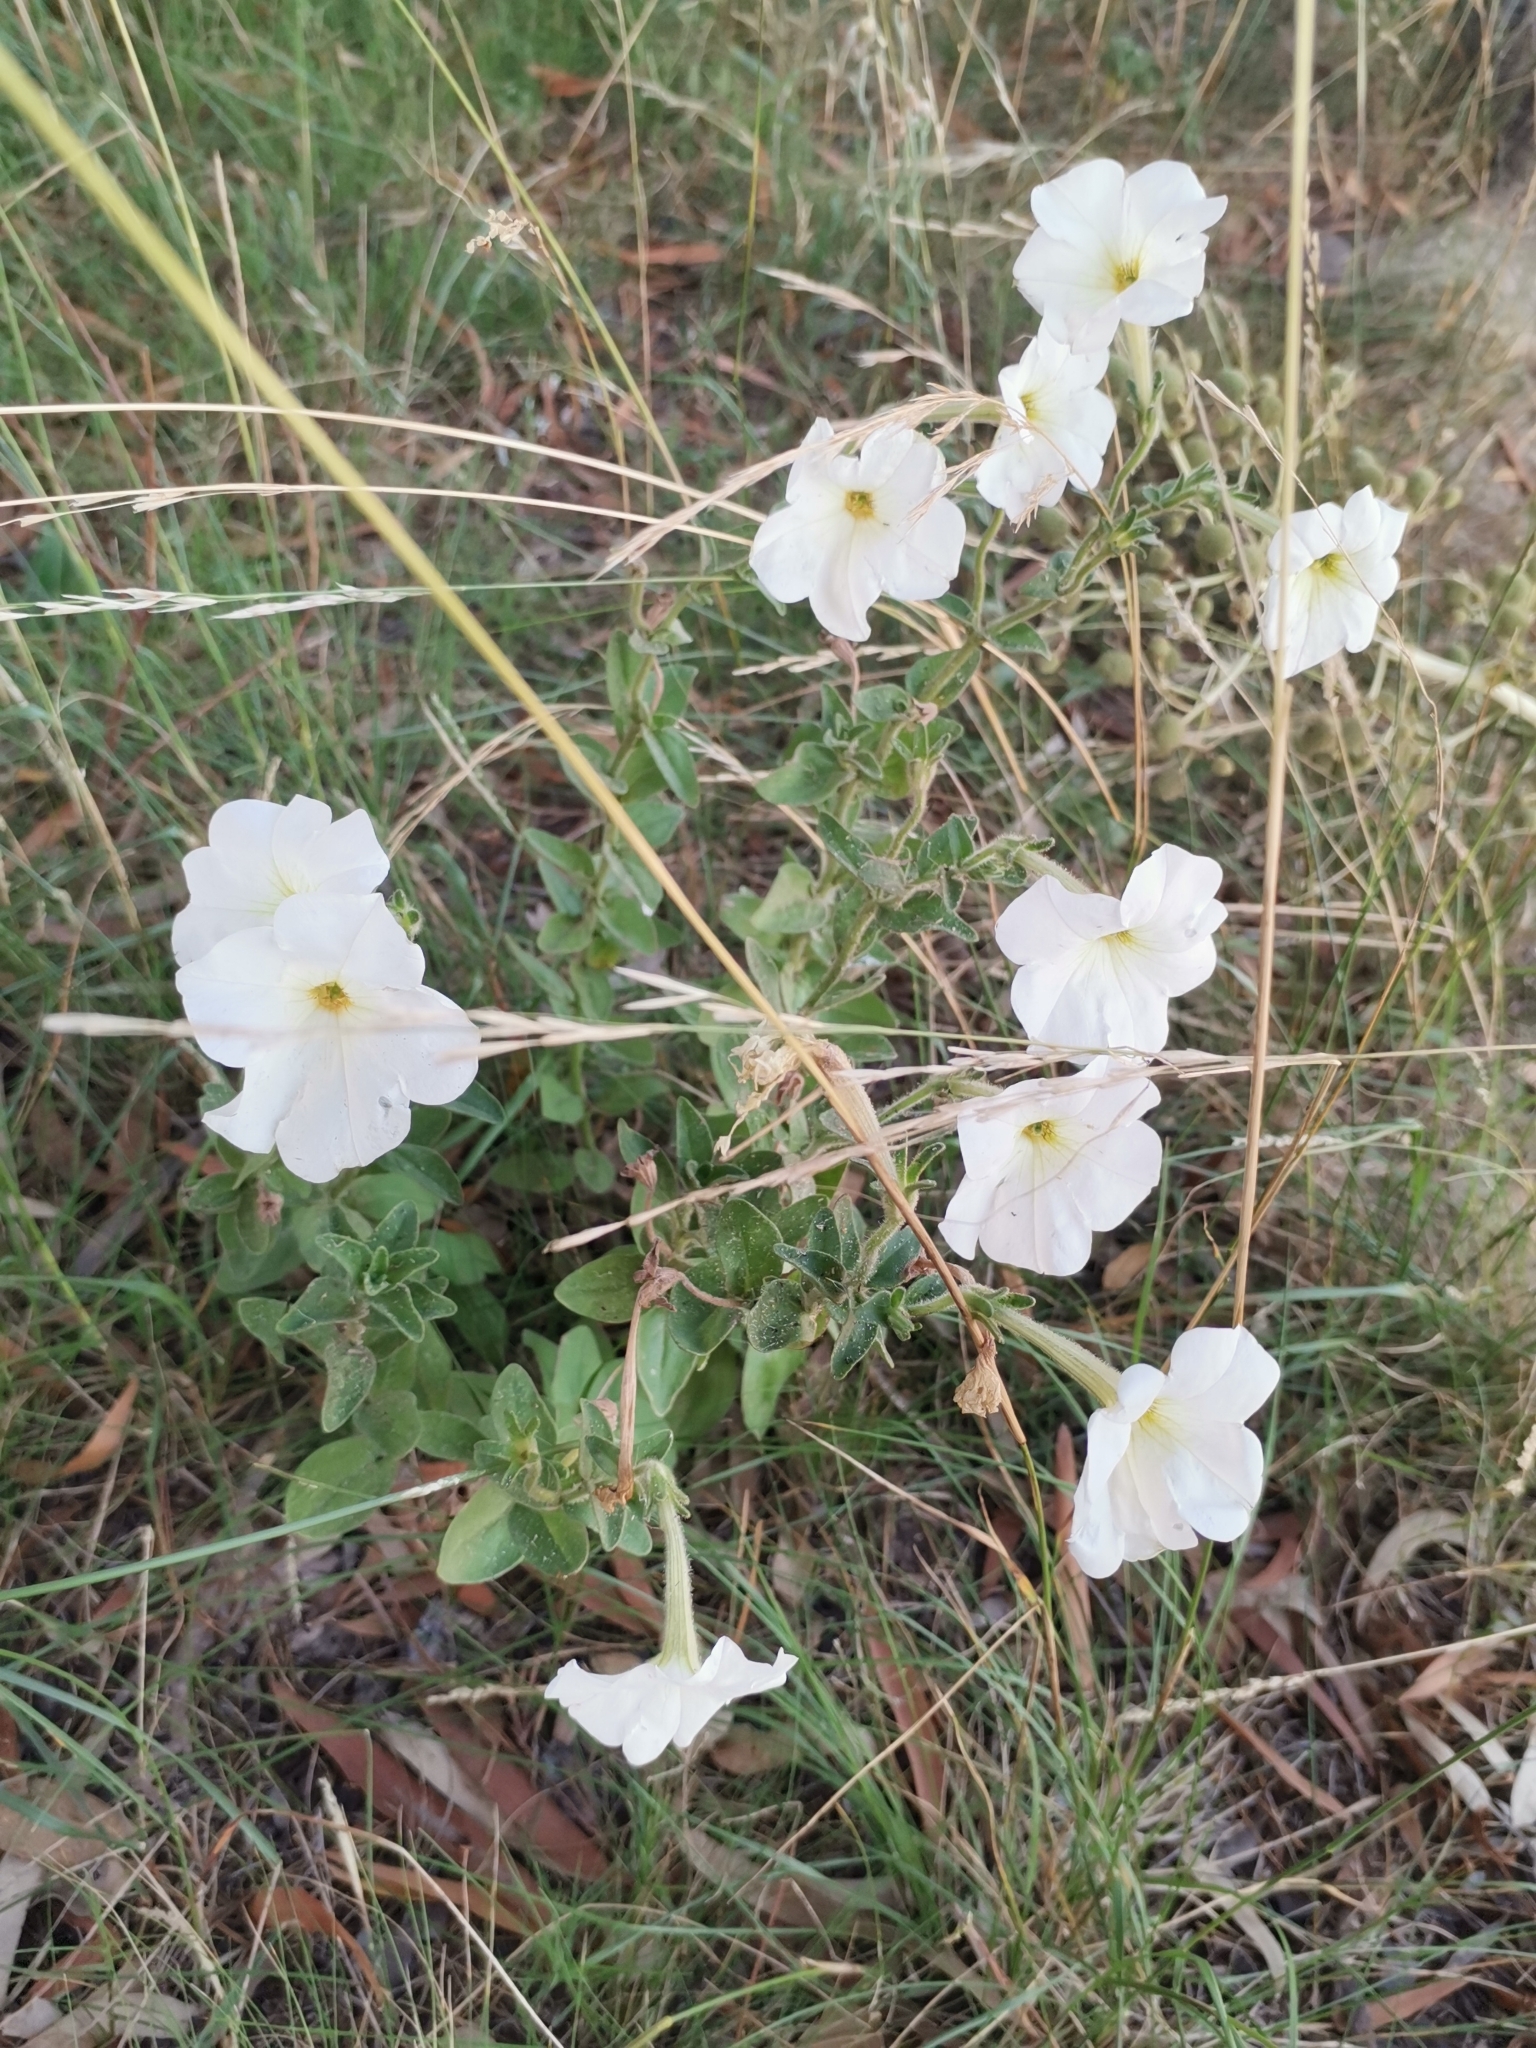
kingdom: Plantae
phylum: Tracheophyta
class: Magnoliopsida
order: Solanales
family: Solanaceae
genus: Petunia
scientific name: Petunia axillaris
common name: Large white petunia
